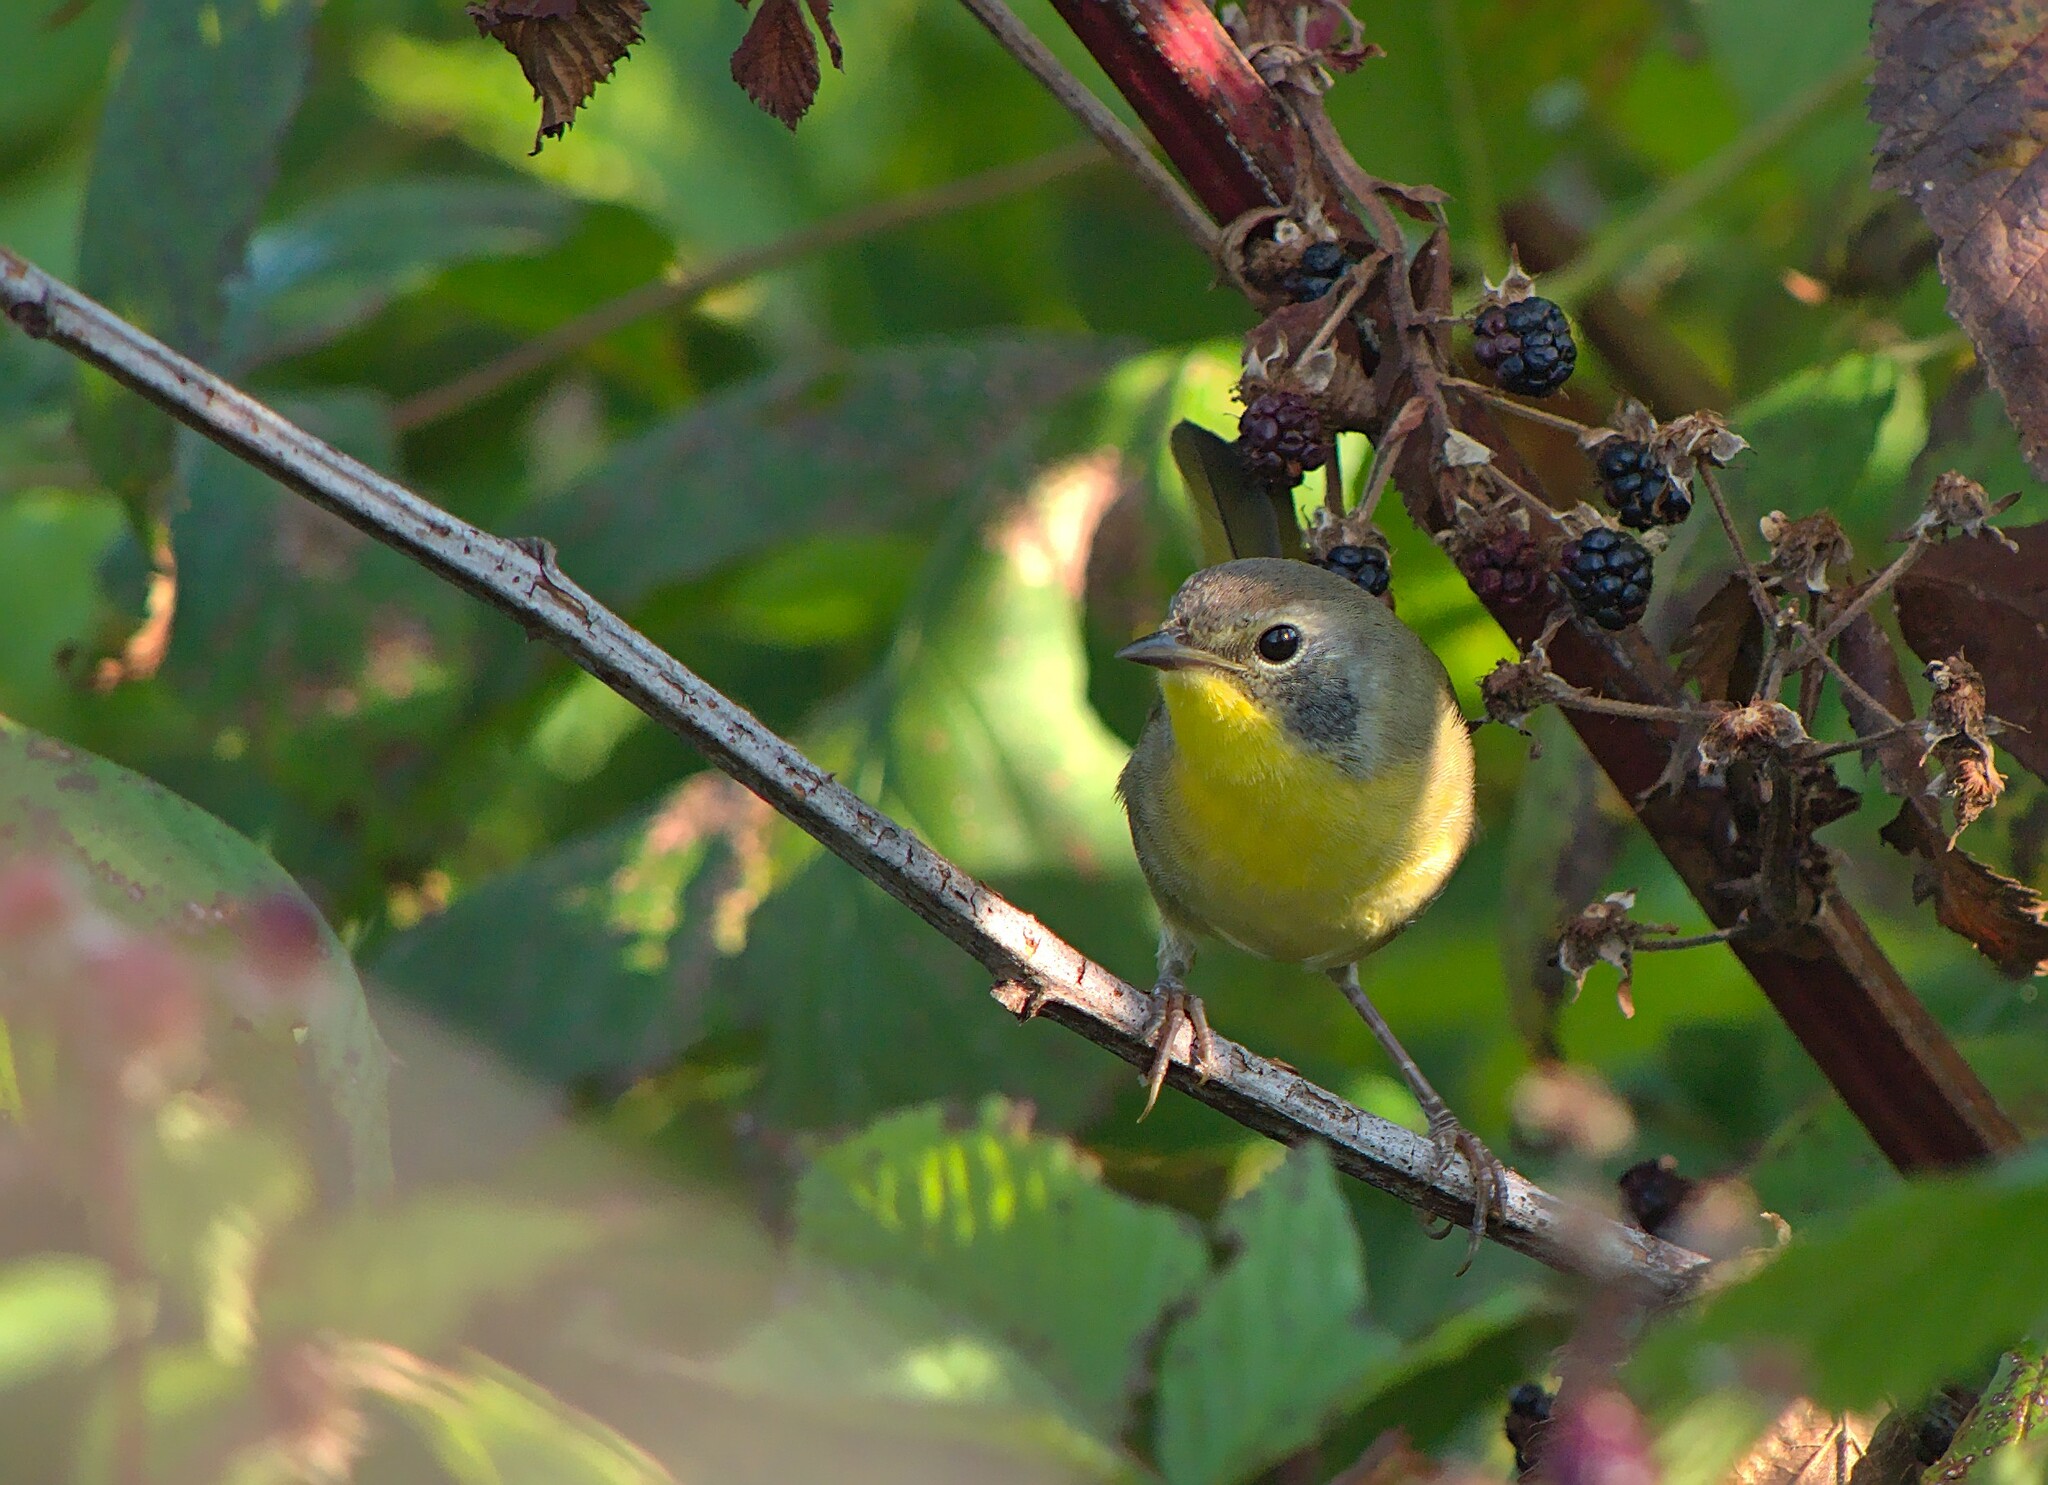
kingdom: Animalia
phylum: Chordata
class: Aves
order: Passeriformes
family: Parulidae
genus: Geothlypis
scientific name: Geothlypis trichas
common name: Common yellowthroat
